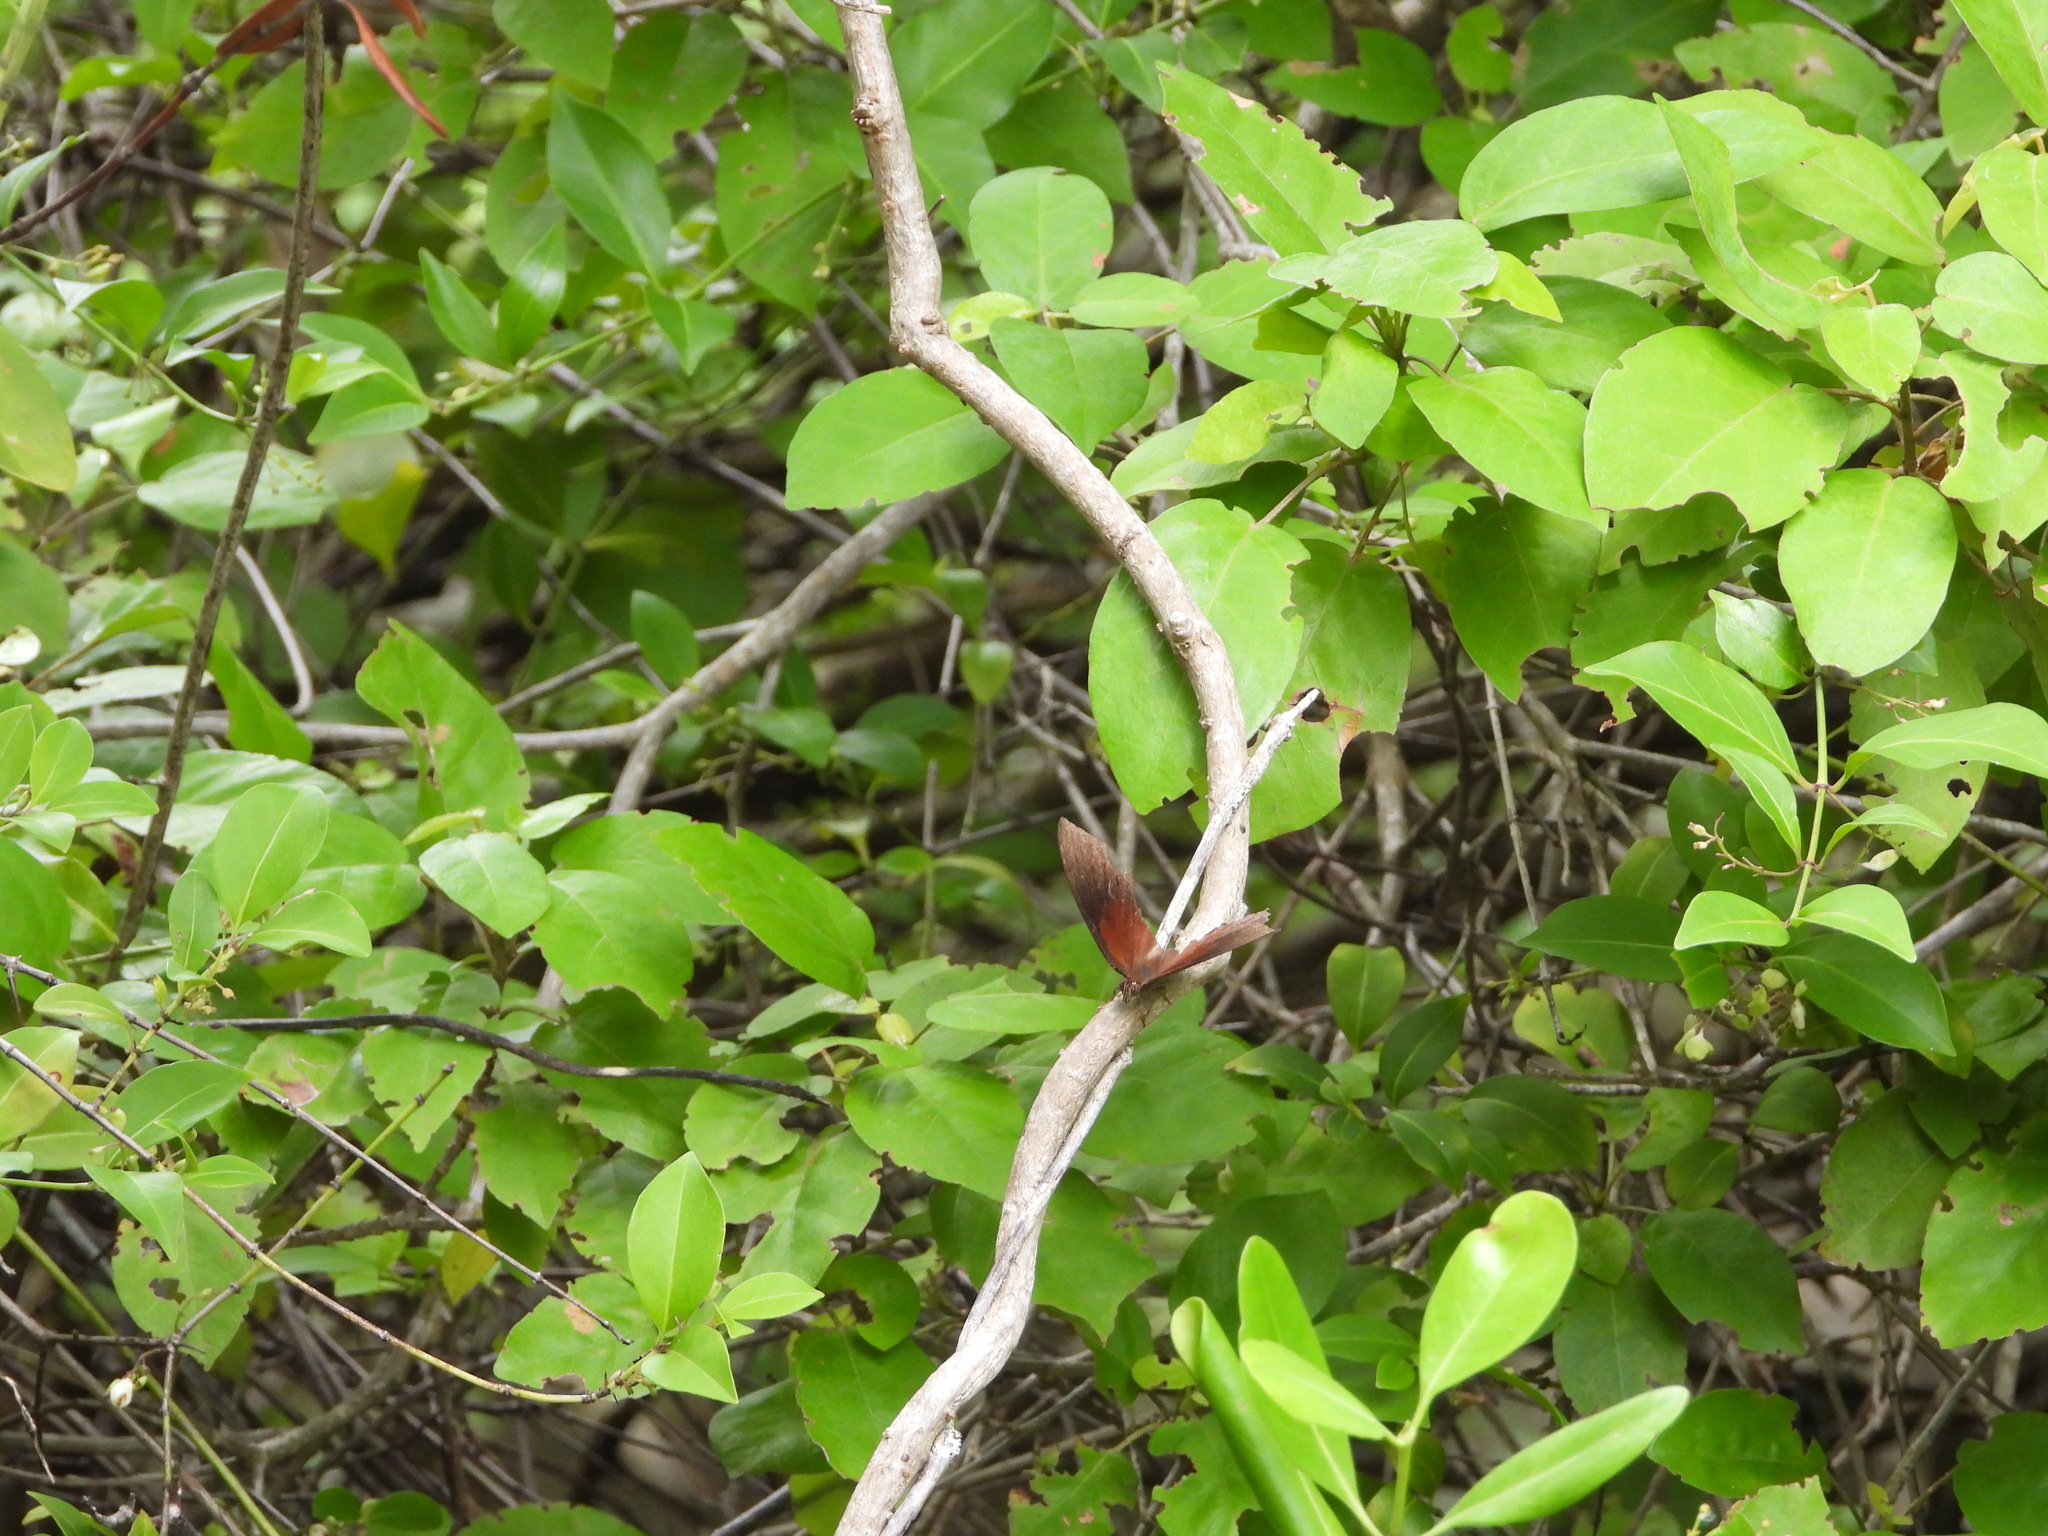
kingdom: Animalia
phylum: Arthropoda
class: Insecta
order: Lepidoptera
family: Nymphalidae
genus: Cymatogramma
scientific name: Cymatogramma echemus
